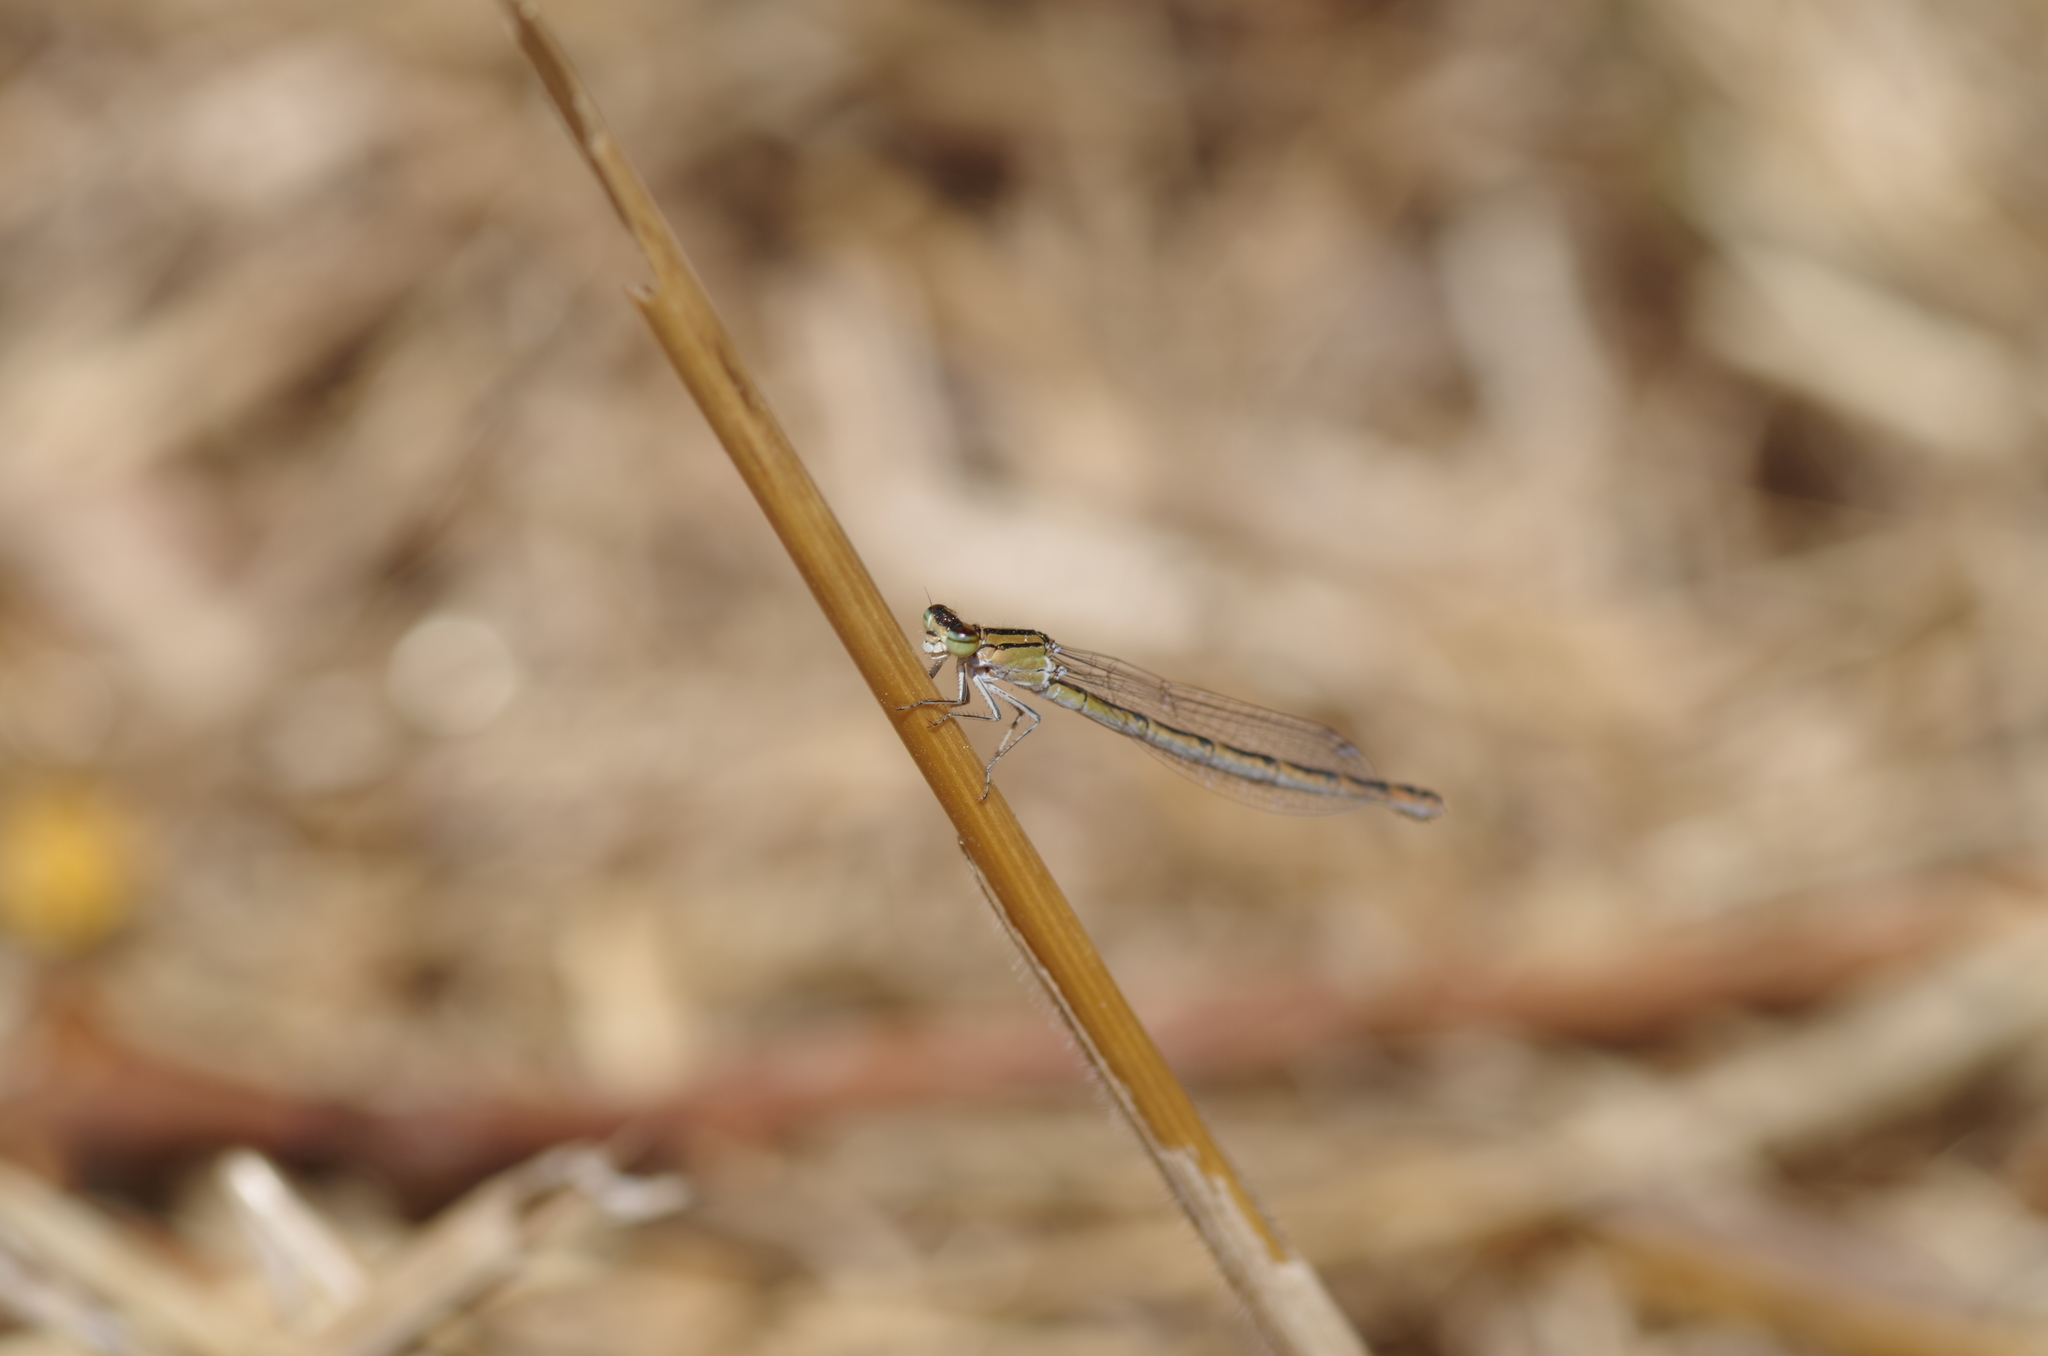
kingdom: Animalia
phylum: Arthropoda
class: Insecta
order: Odonata
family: Coenagrionidae
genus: Enallagma
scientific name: Enallagma cyathigerum
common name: Common blue damselfly
